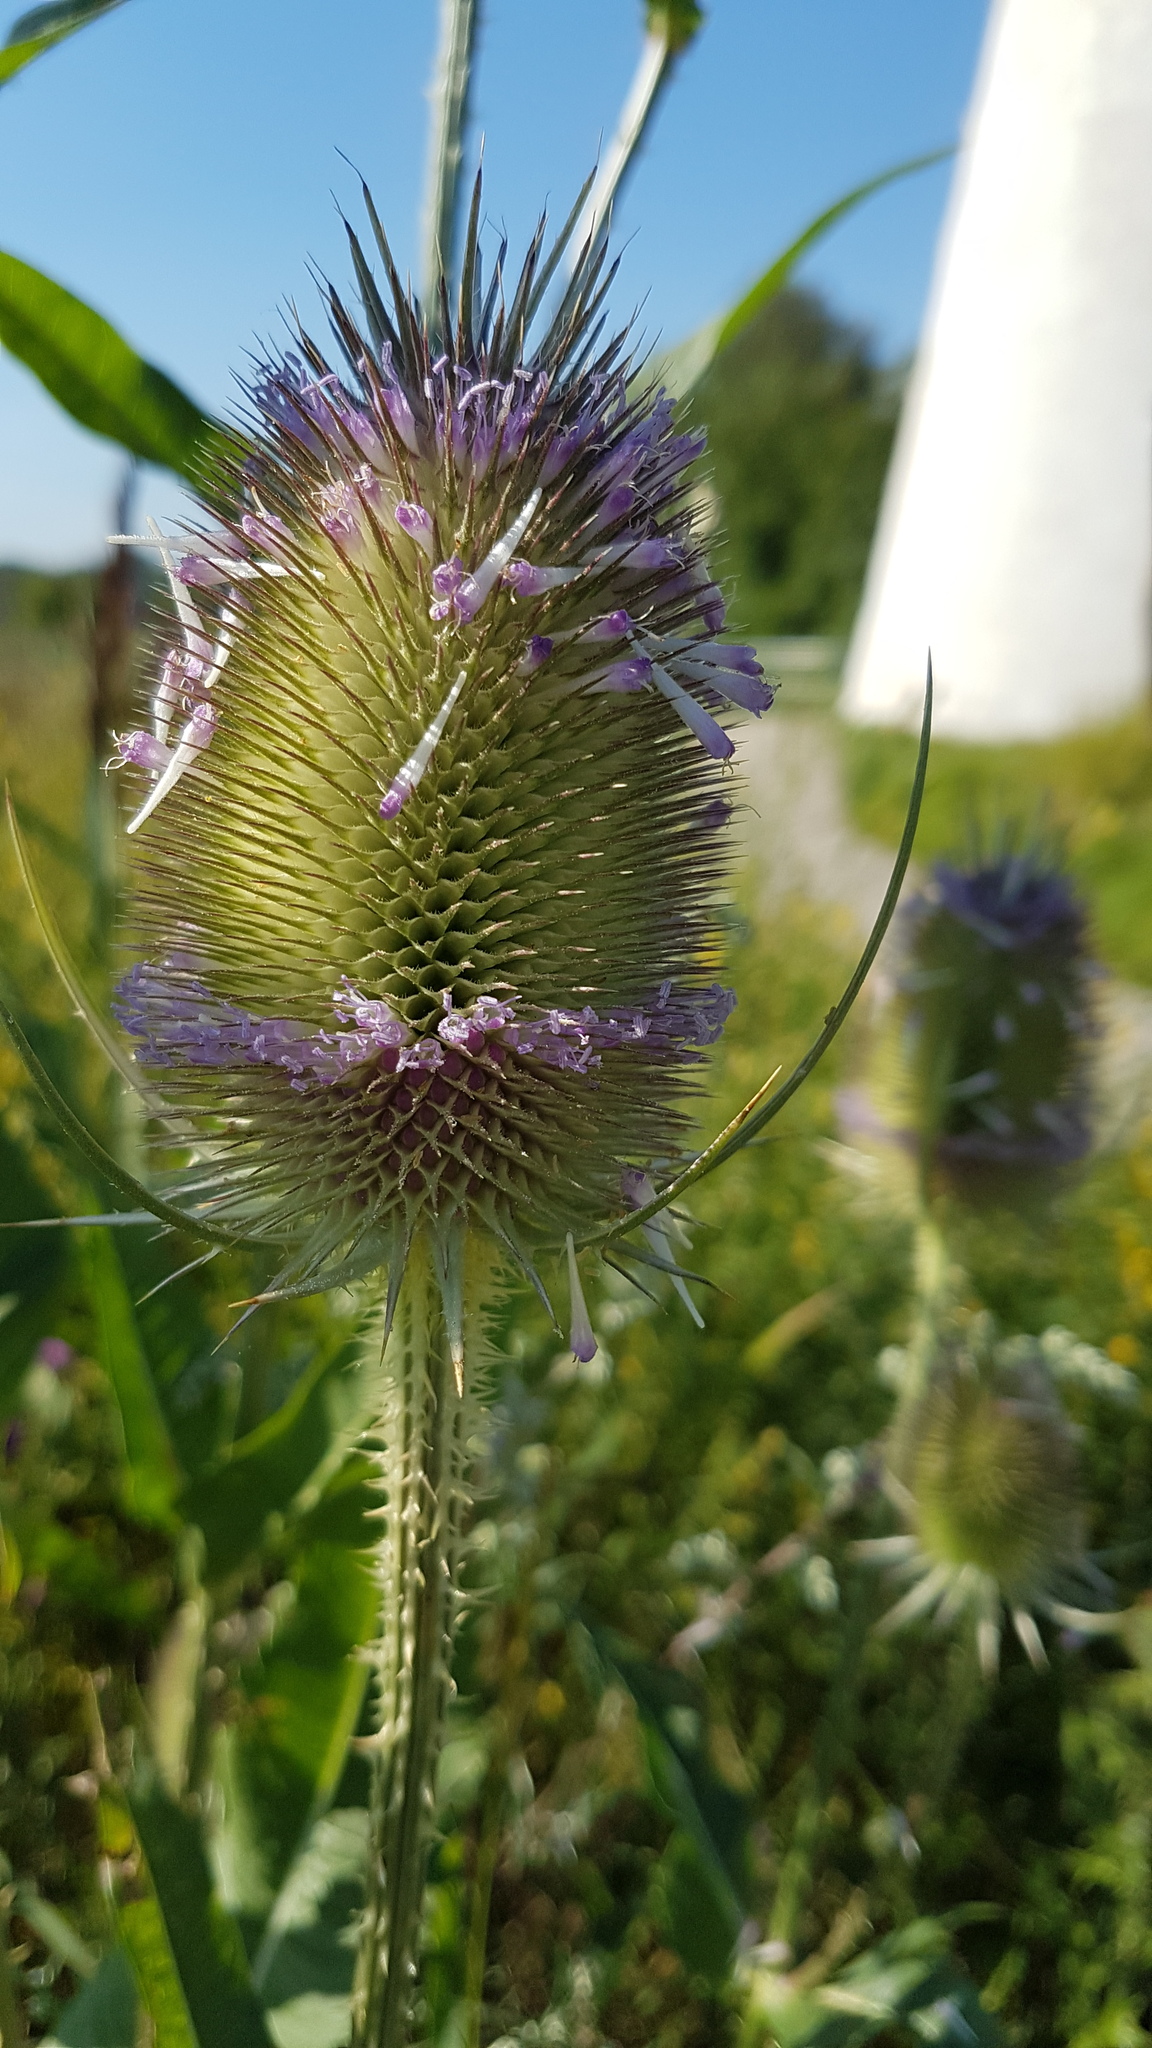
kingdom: Plantae
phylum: Tracheophyta
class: Magnoliopsida
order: Dipsacales
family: Caprifoliaceae
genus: Dipsacus
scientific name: Dipsacus fullonum
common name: Teasel
